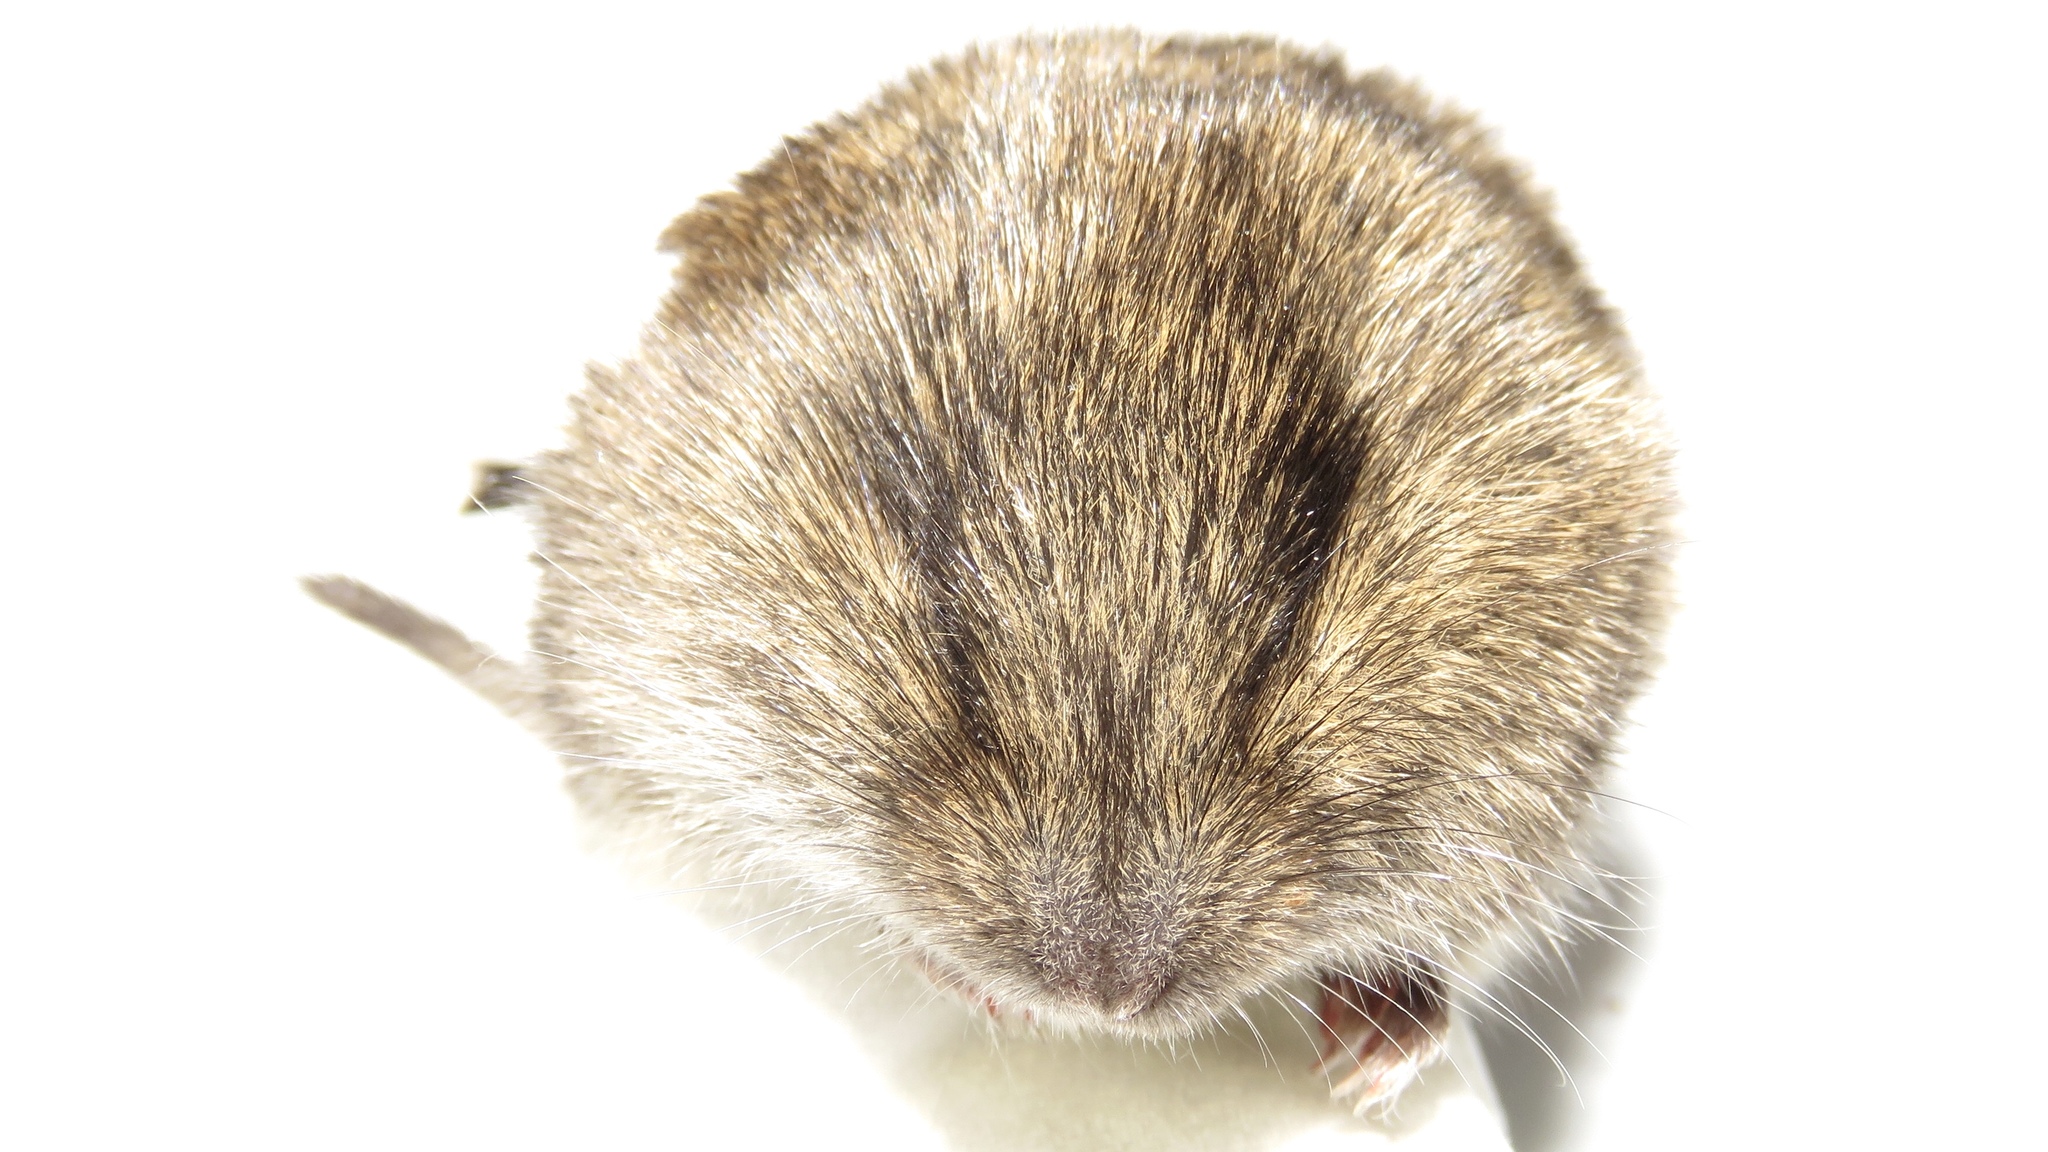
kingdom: Animalia
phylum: Chordata
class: Mammalia
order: Rodentia
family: Cricetidae
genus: Microtus
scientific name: Microtus pennsylvanicus
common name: Meadow vole
